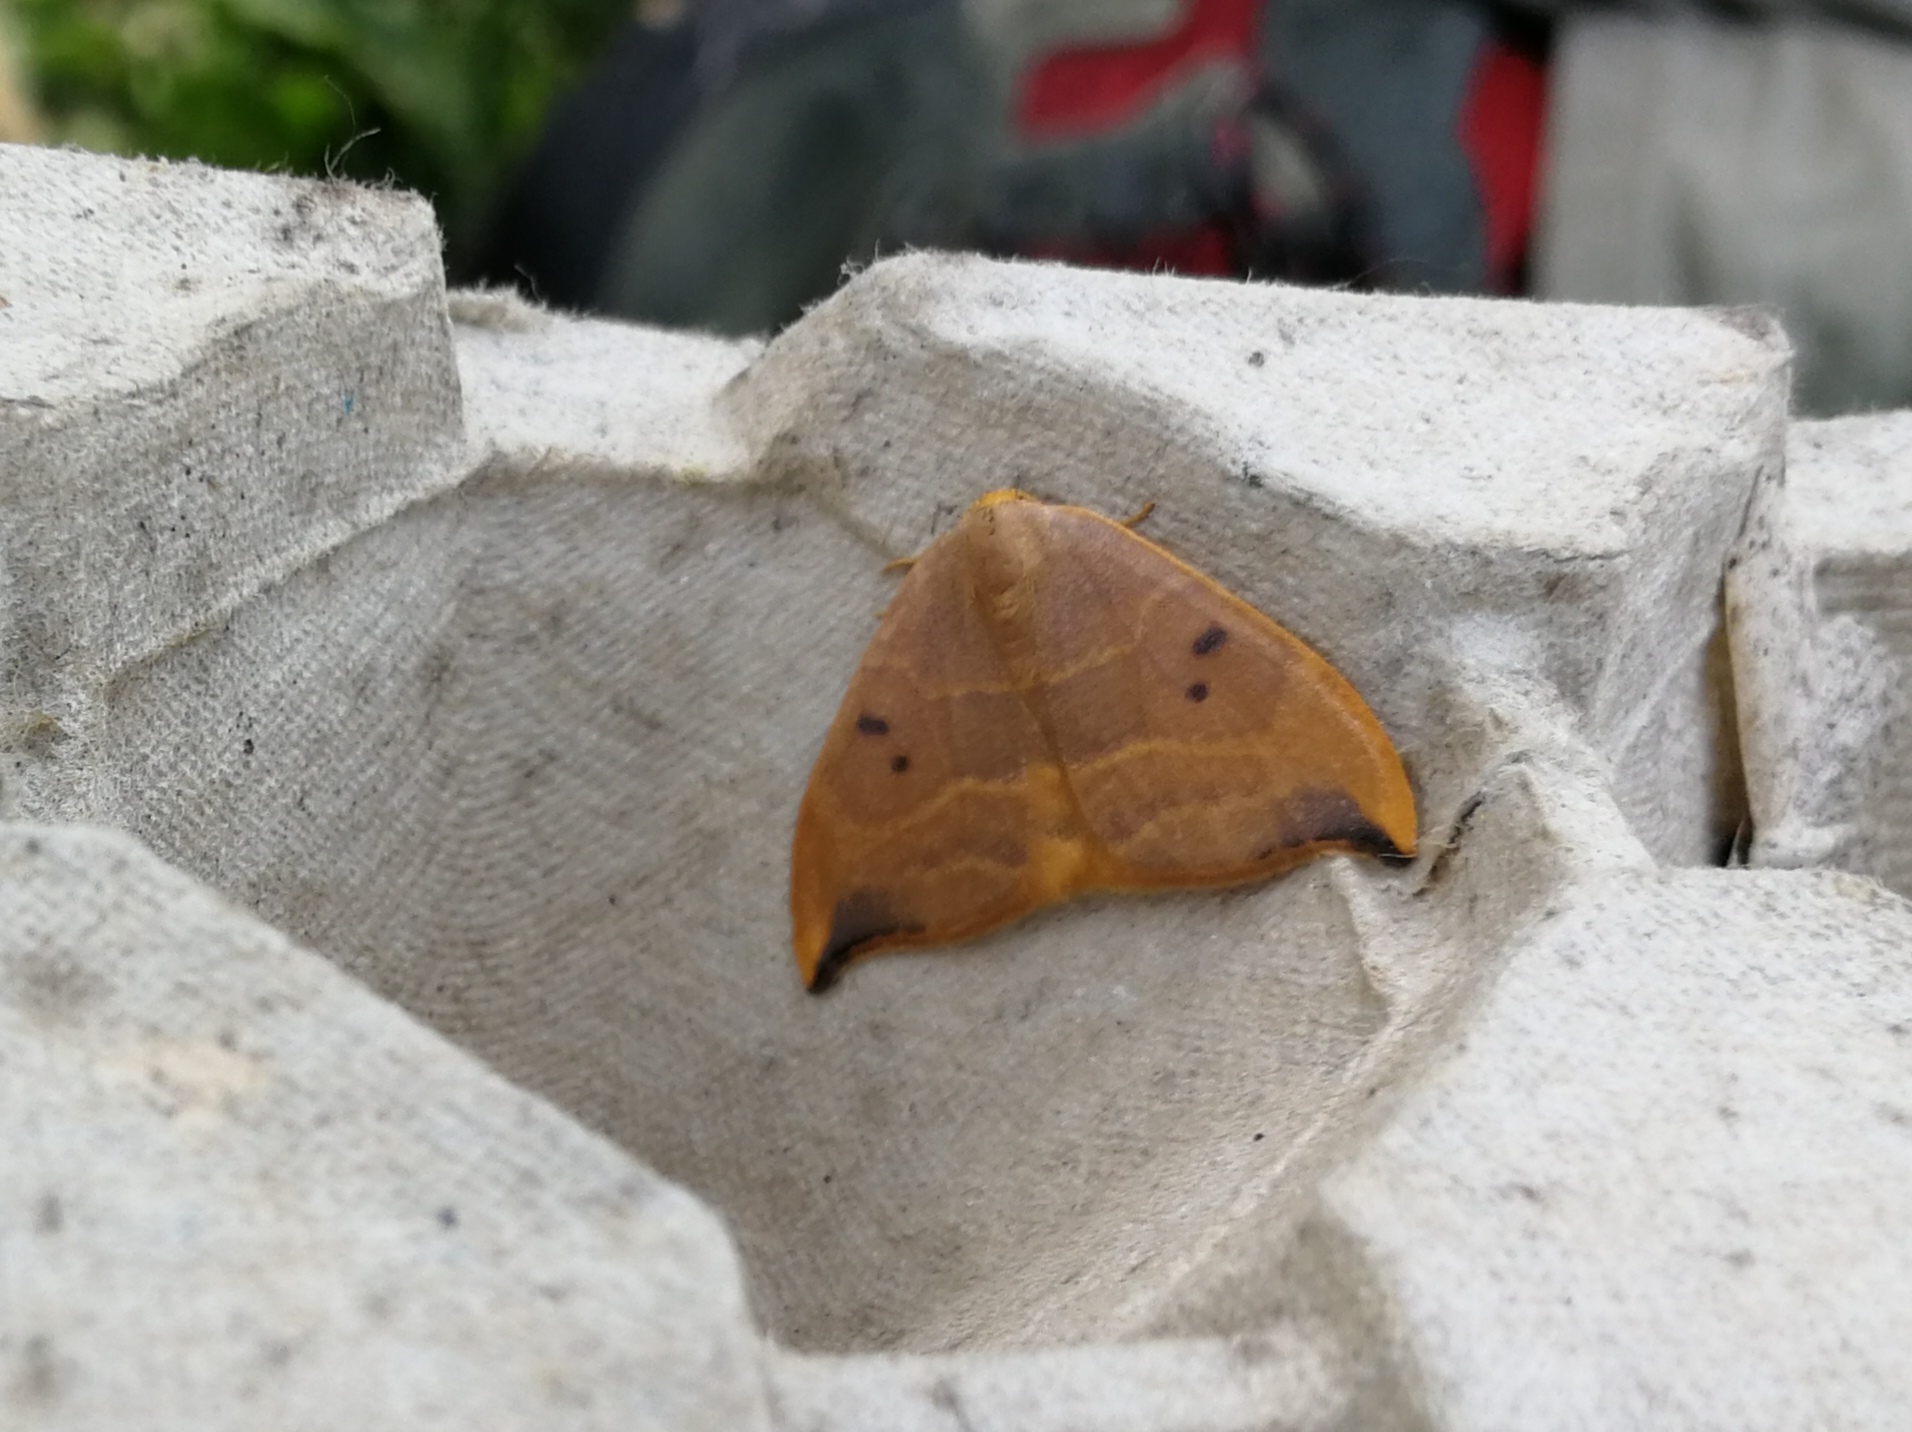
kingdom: Animalia
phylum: Arthropoda
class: Insecta
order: Lepidoptera
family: Drepanidae
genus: Watsonalla
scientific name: Watsonalla binaria
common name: Oak hook-tip
